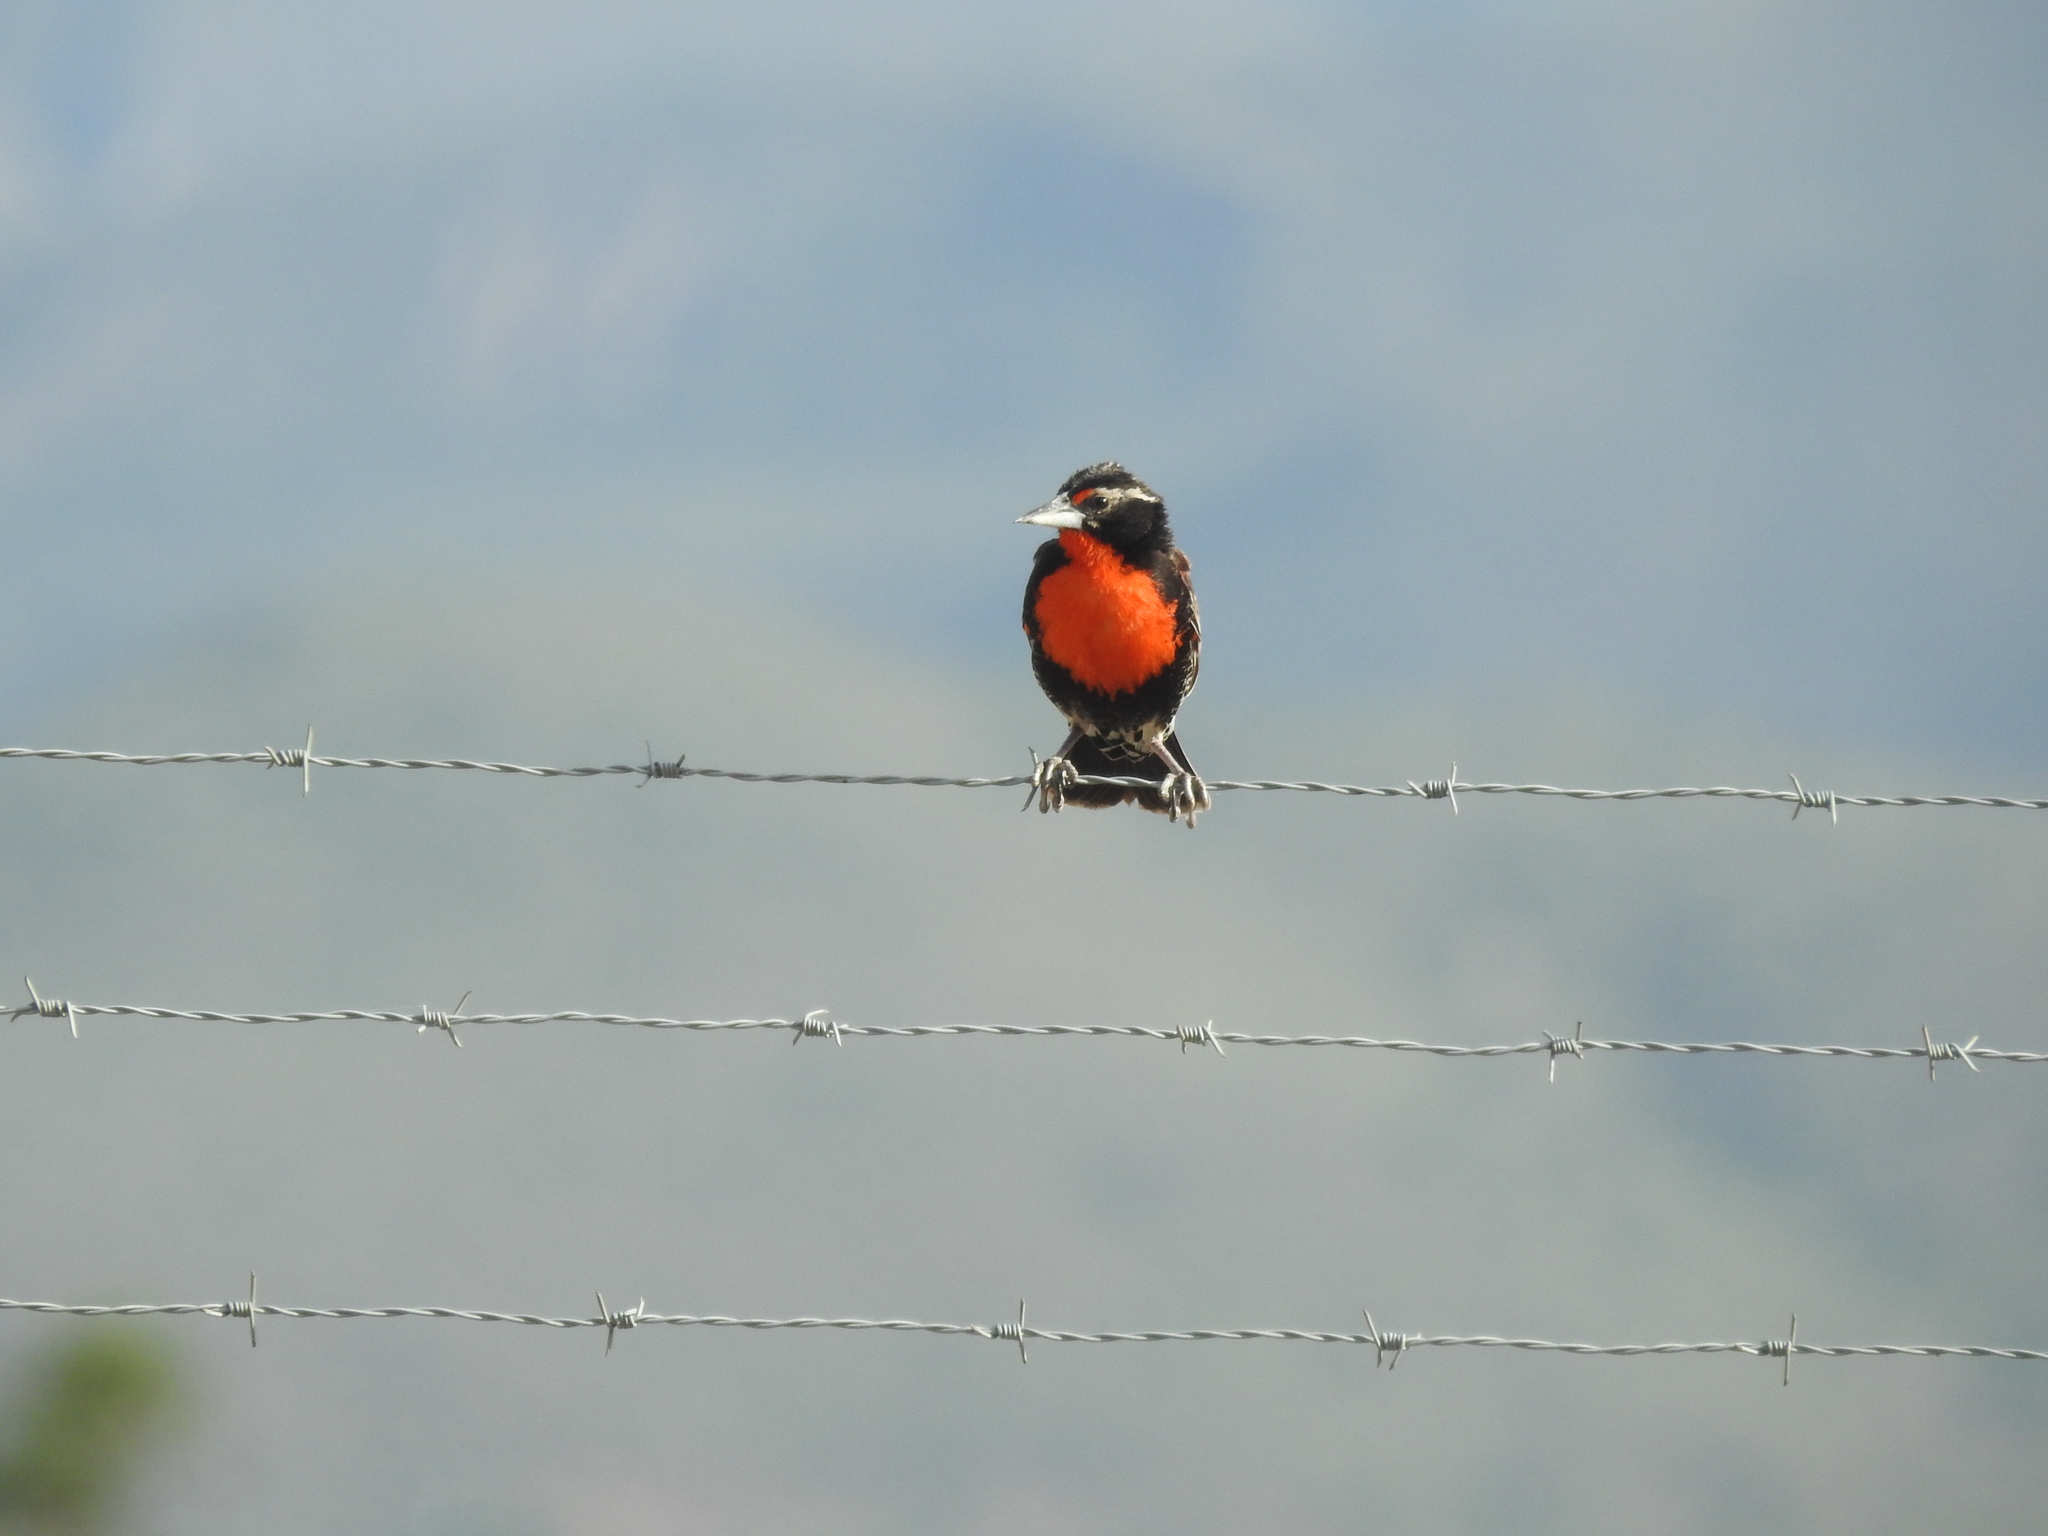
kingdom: Animalia
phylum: Chordata
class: Aves
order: Passeriformes
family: Icteridae
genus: Sturnella
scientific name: Sturnella bellicosa
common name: Peruvian meadowlark
